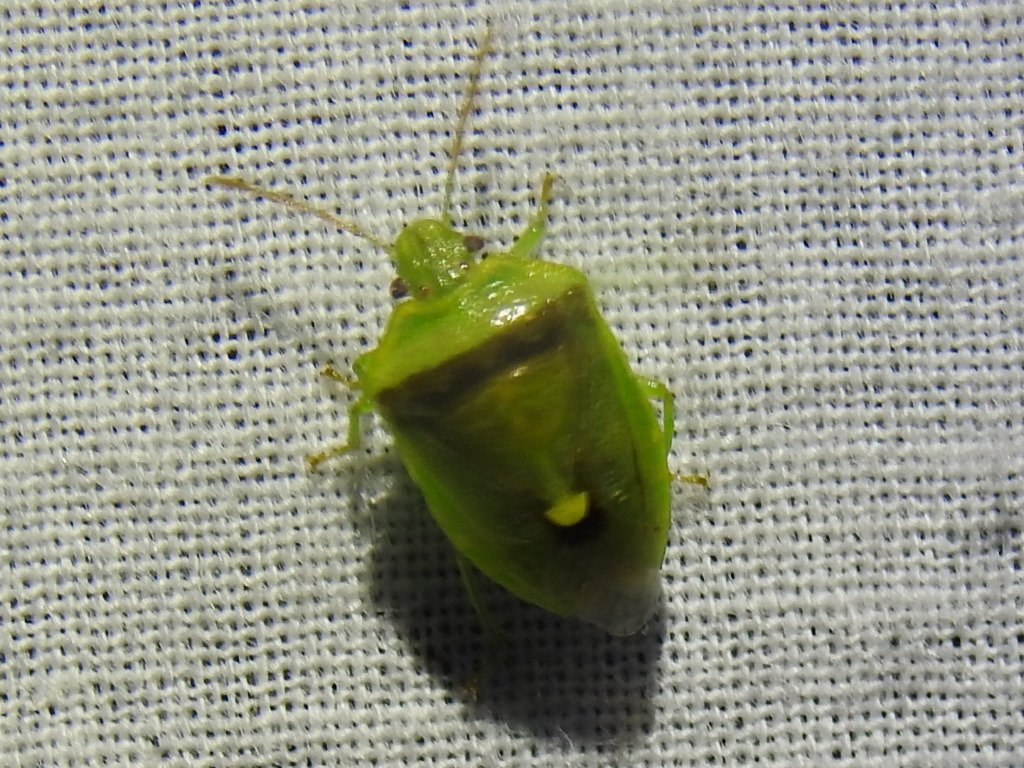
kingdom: Animalia
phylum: Arthropoda
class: Insecta
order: Hemiptera
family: Pentatomidae
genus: Banasa
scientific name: Banasa dimidiata
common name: Green burgundy stink bug
